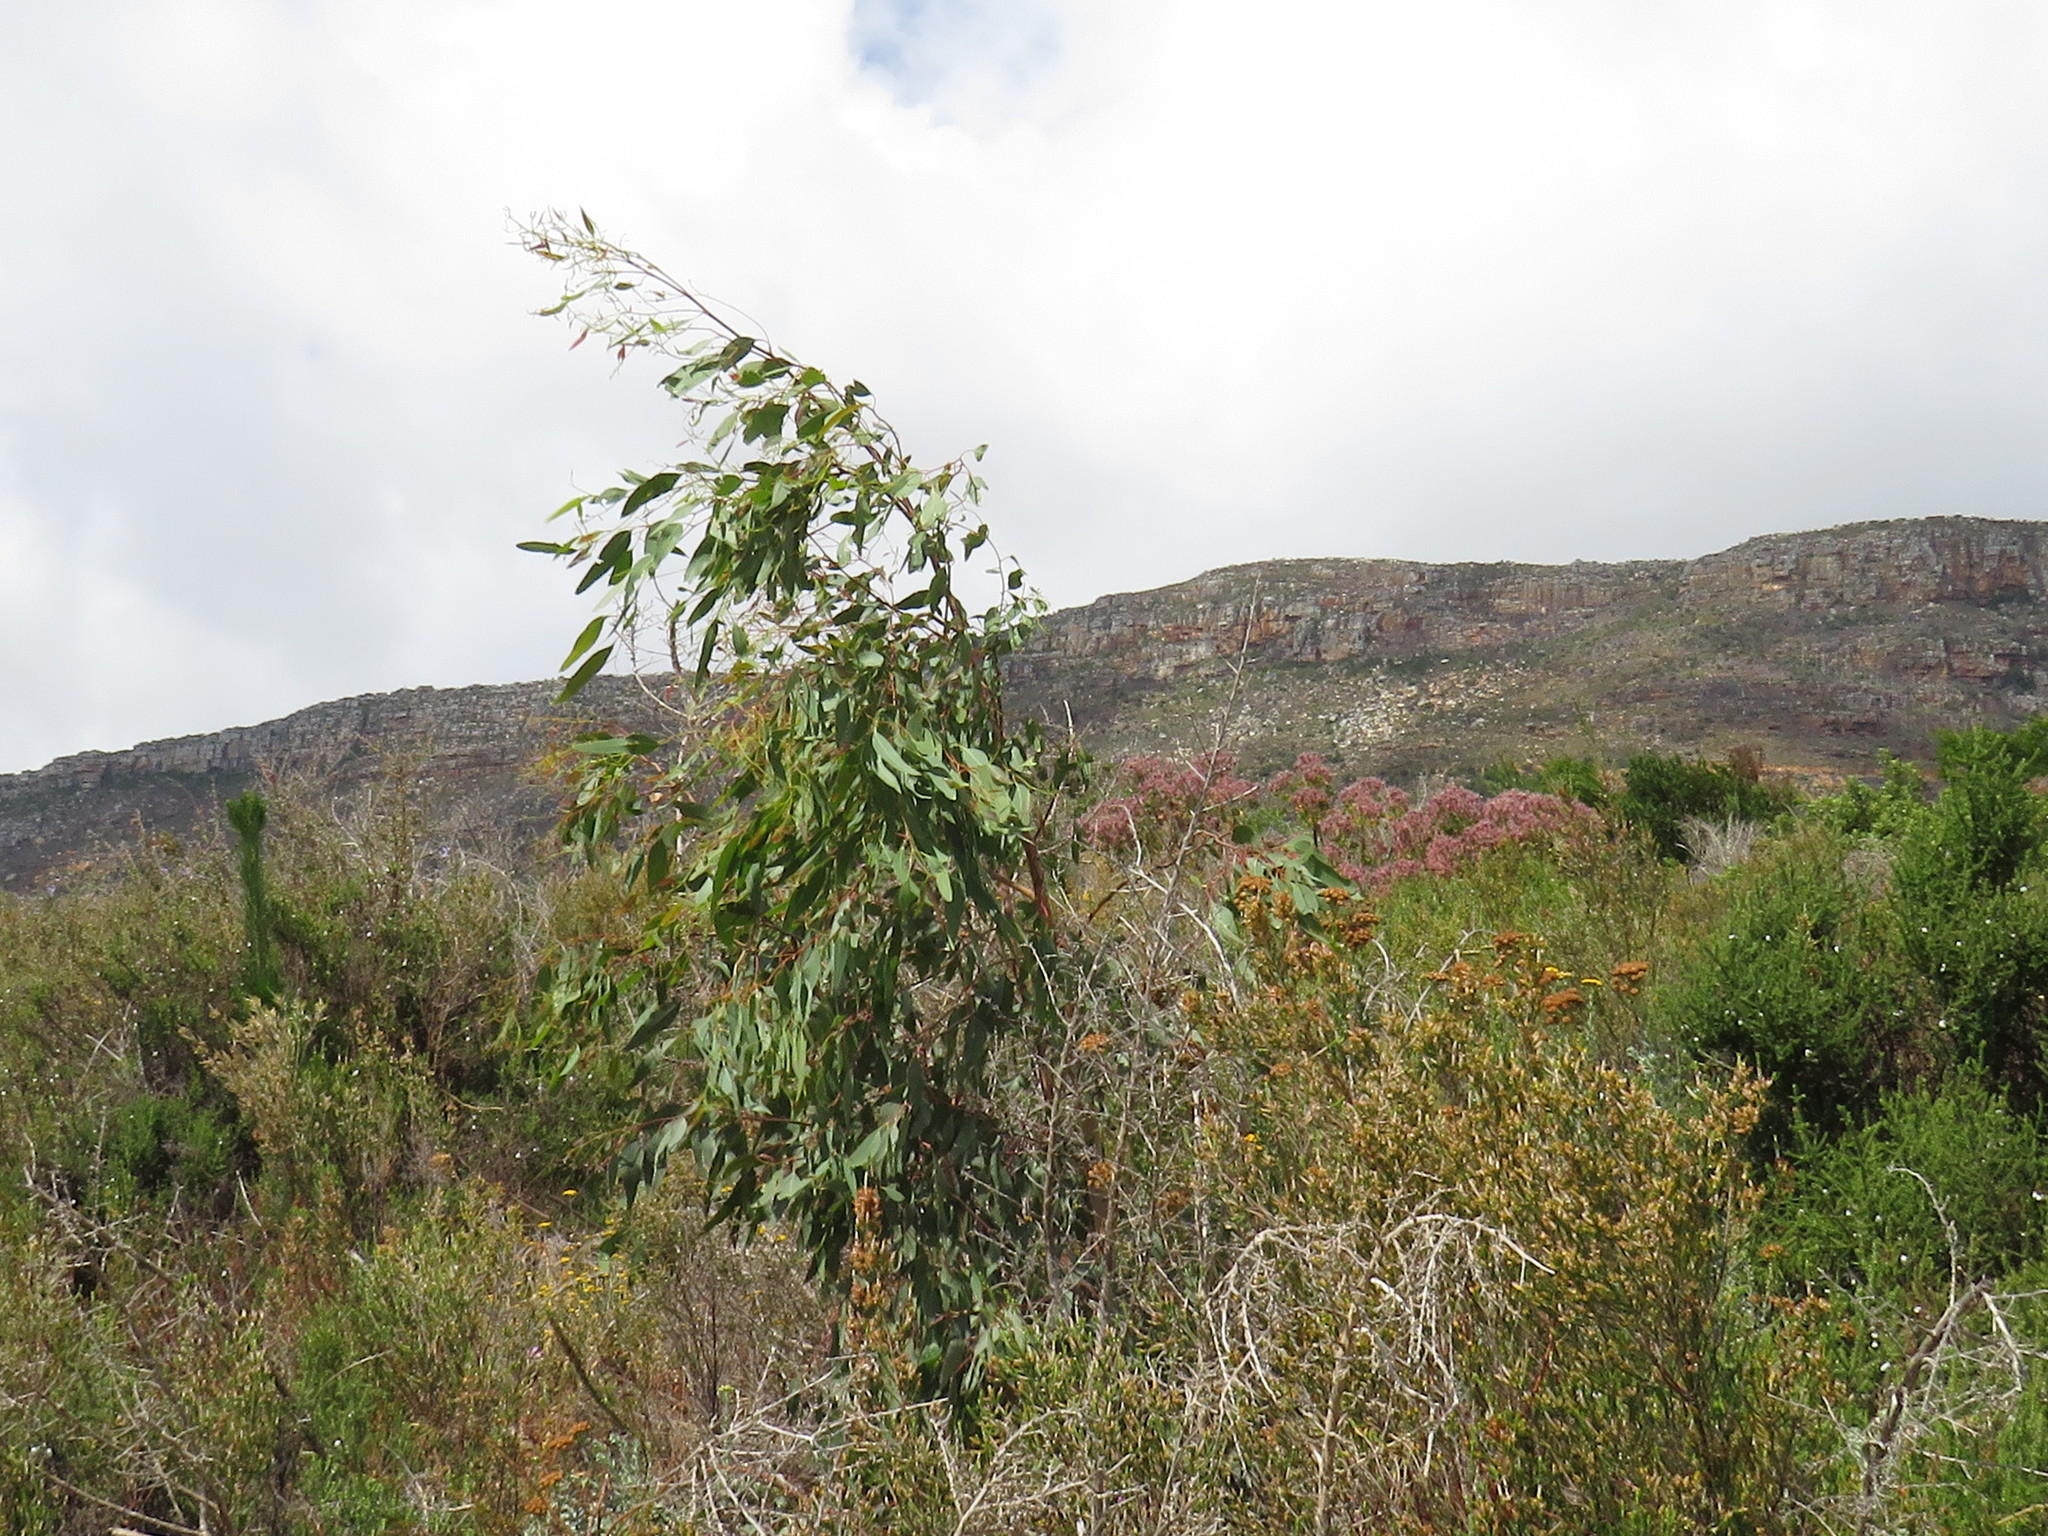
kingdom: Animalia
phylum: Arthropoda
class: Insecta
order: Hymenoptera
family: Eulophidae
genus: Leptocybe
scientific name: Leptocybe invasa
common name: Gall wasp
